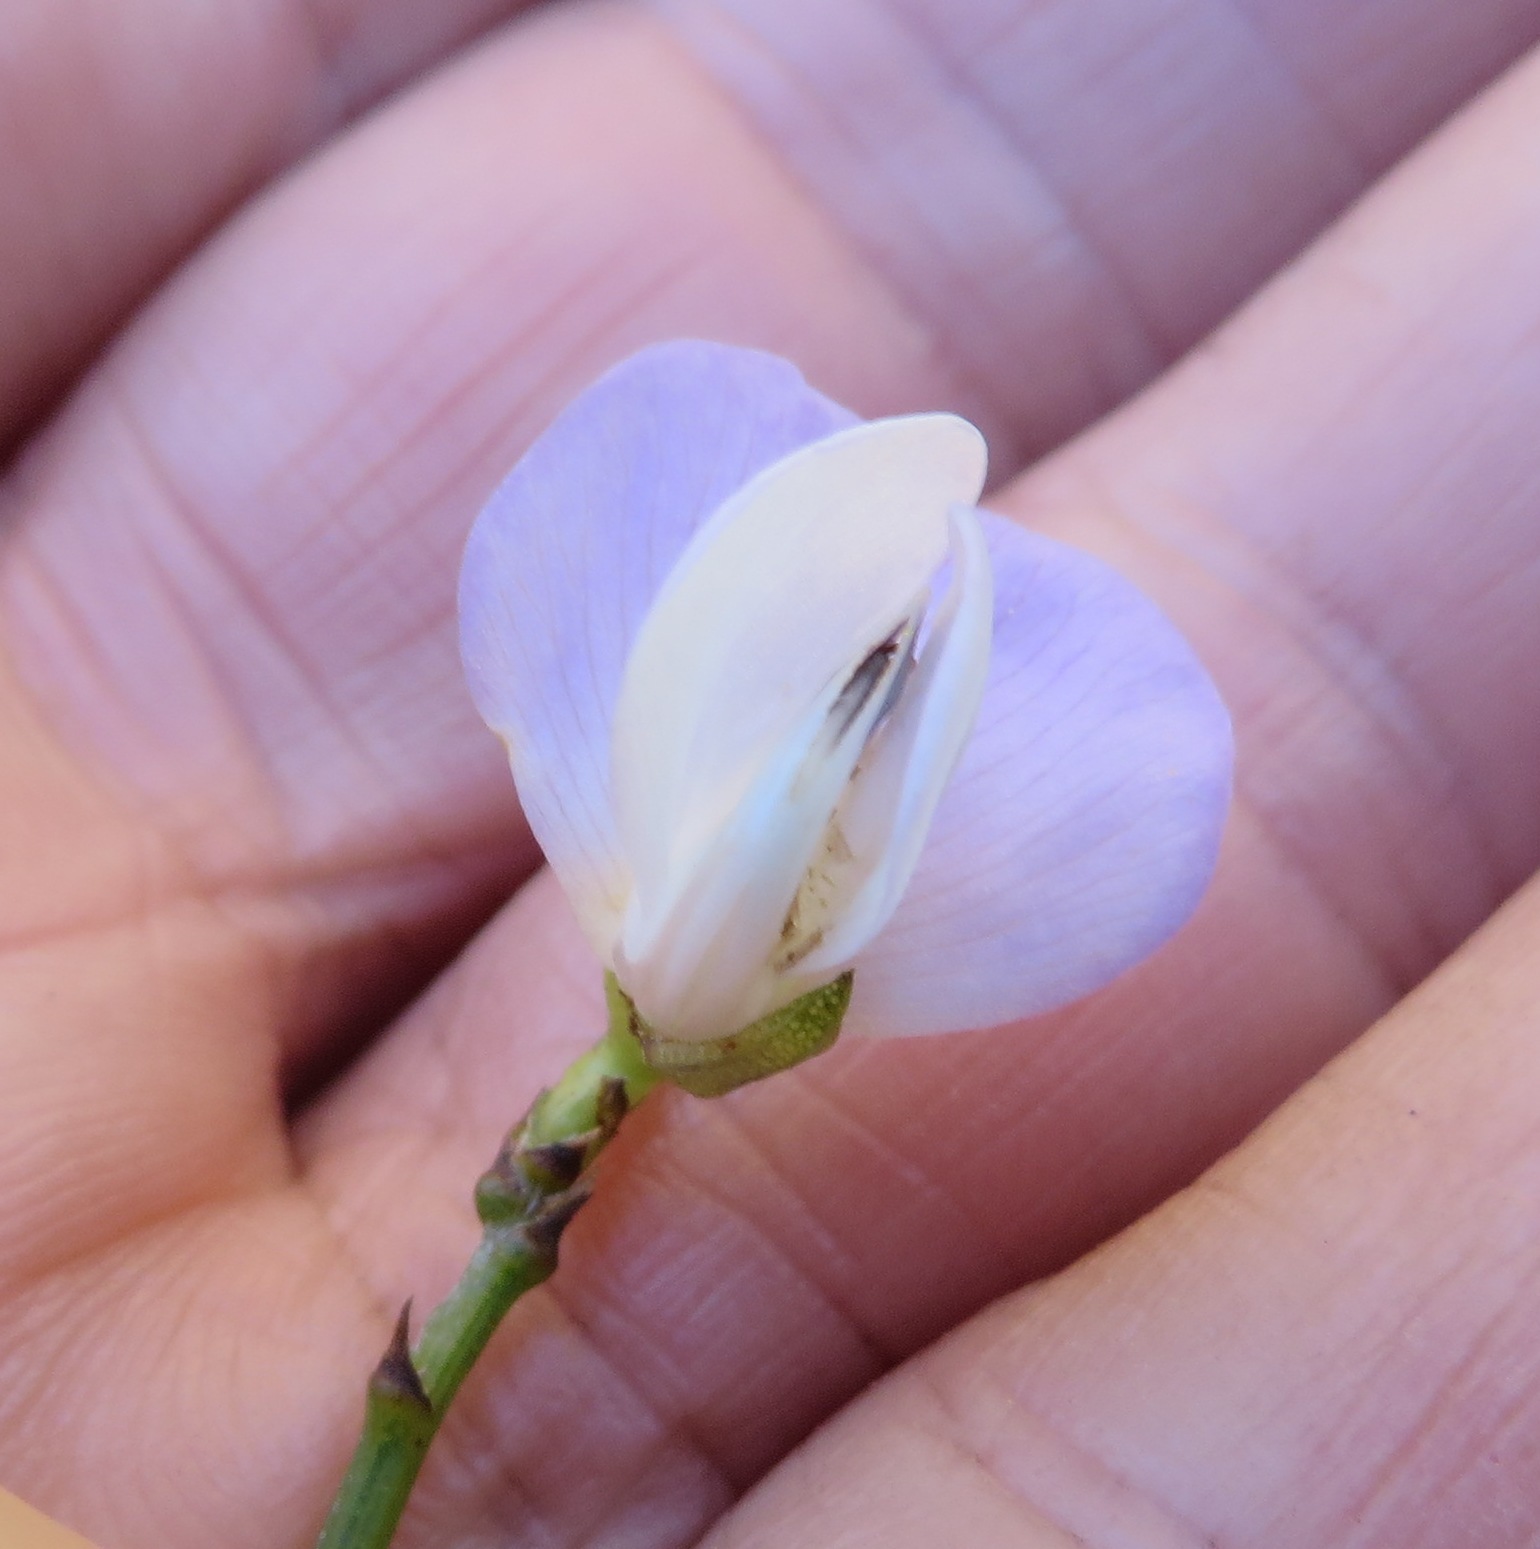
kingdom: Plantae
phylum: Tracheophyta
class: Magnoliopsida
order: Fabales
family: Fabaceae
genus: Psoralea
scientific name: Psoralea usitata
